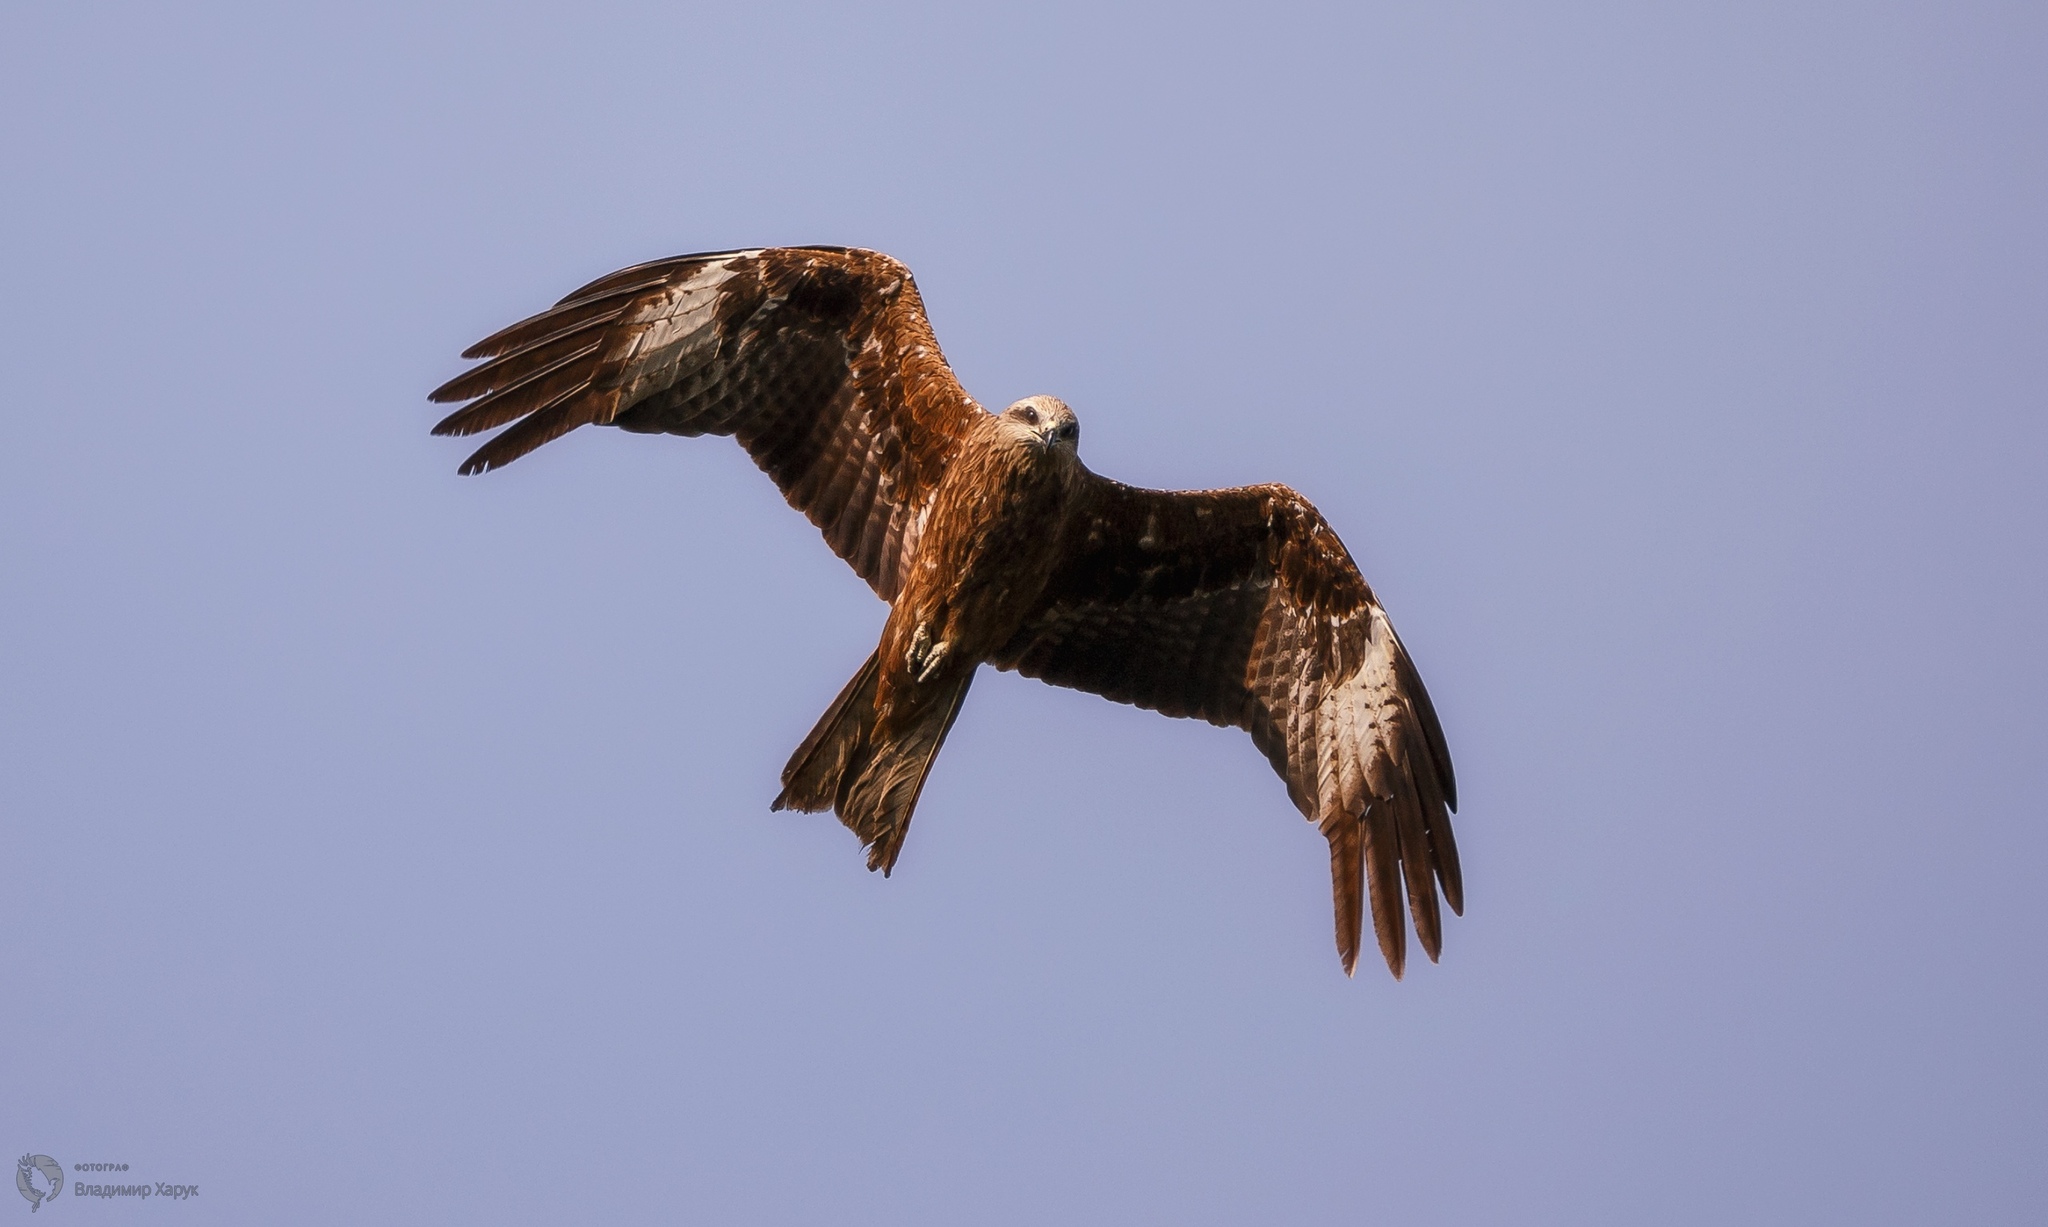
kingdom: Animalia
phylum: Chordata
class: Aves
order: Accipitriformes
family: Accipitridae
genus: Milvus
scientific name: Milvus migrans
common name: Black kite
